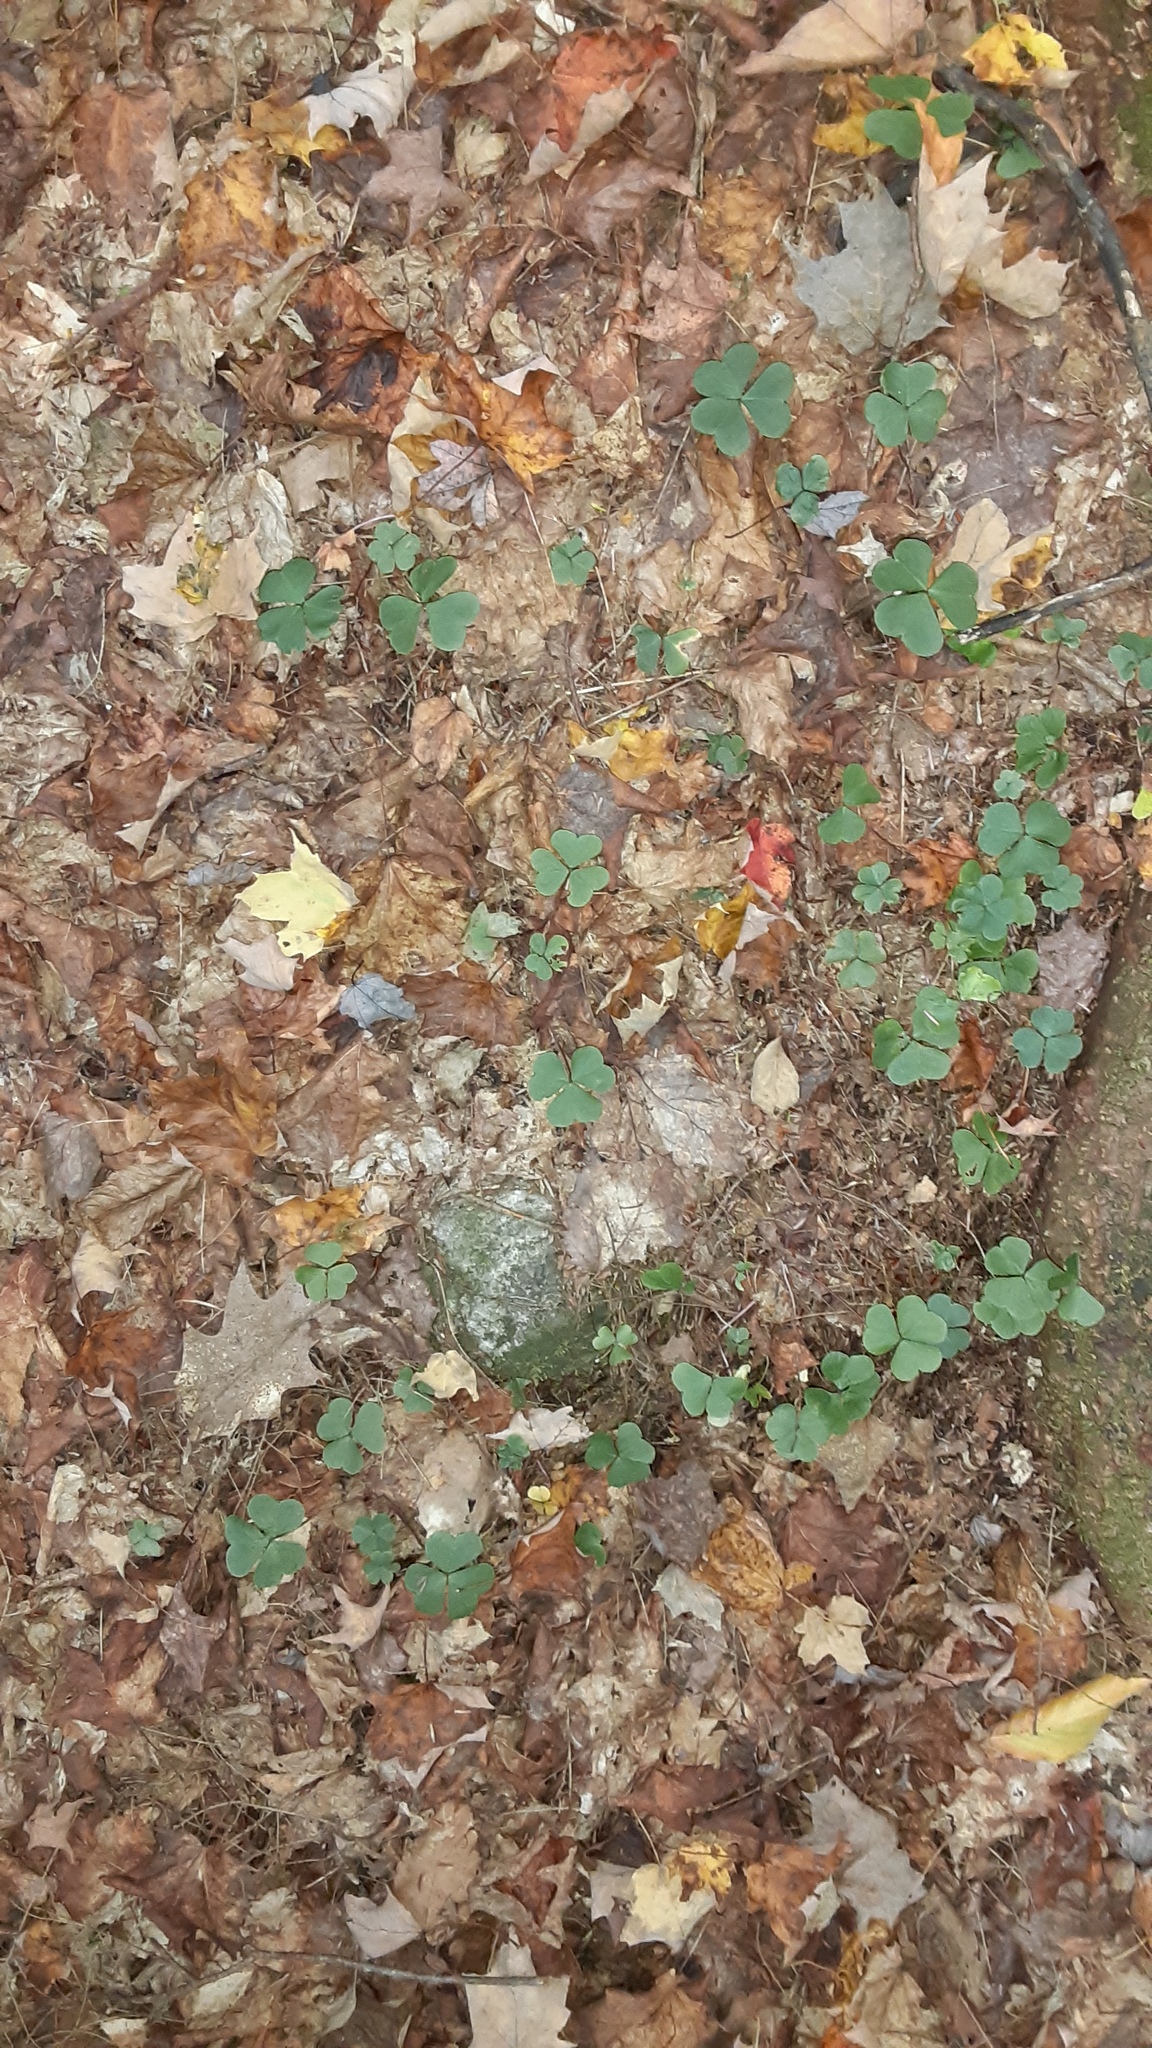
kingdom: Plantae
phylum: Tracheophyta
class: Magnoliopsida
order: Oxalidales
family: Oxalidaceae
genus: Oxalis
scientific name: Oxalis montana
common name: American wood-sorrel
